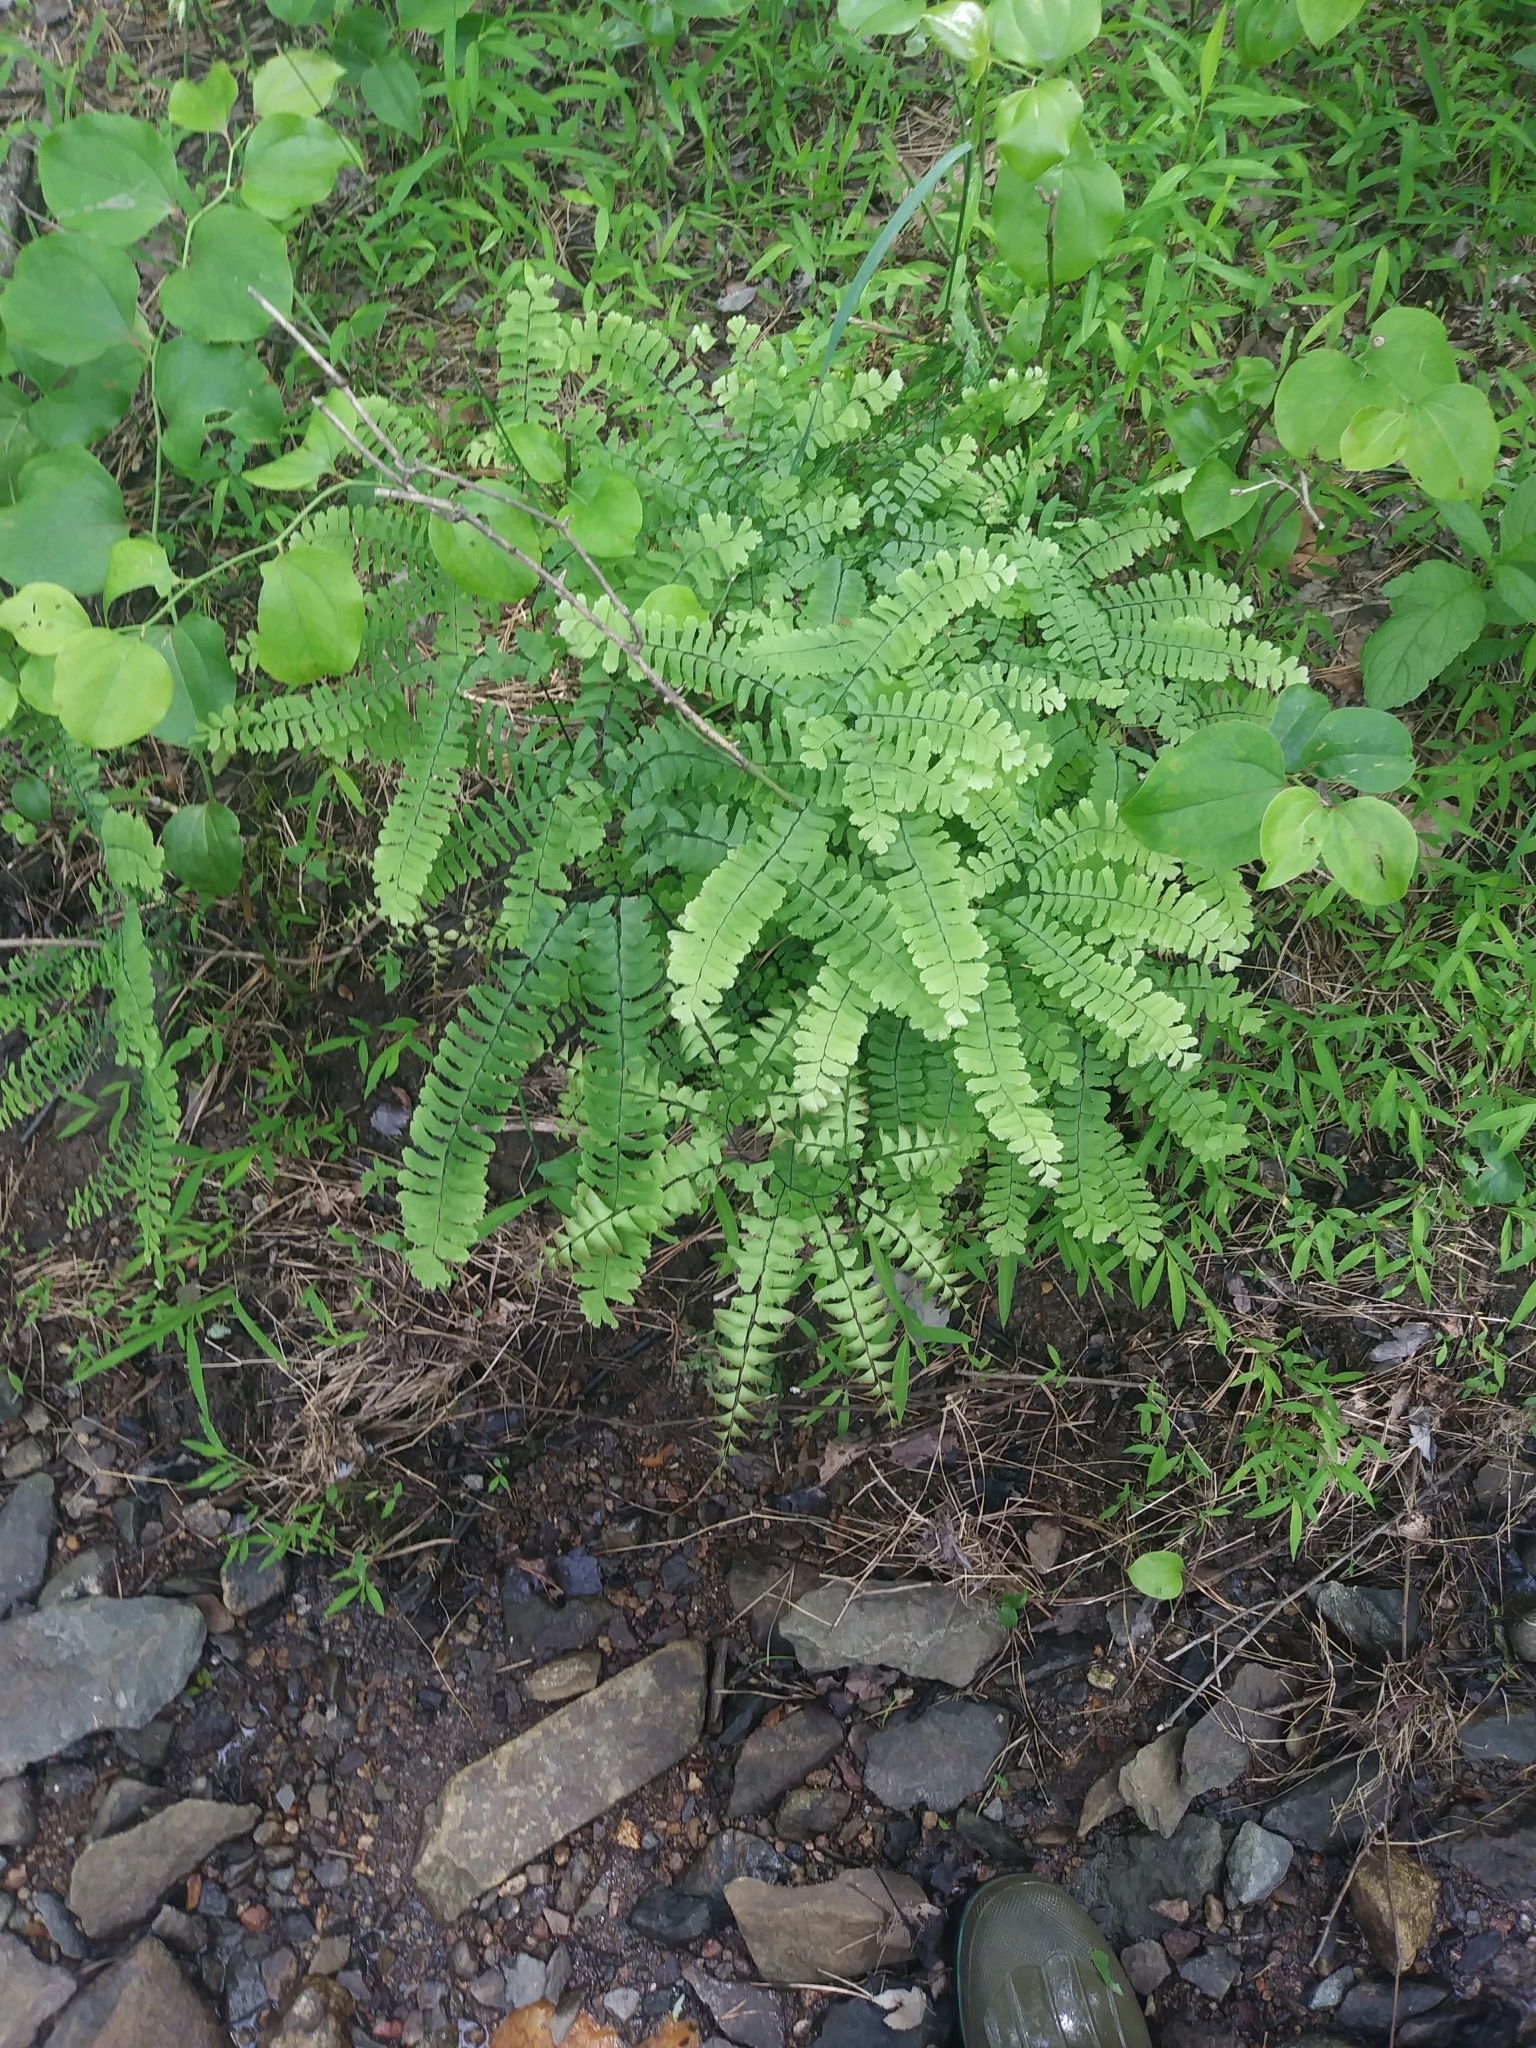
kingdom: Plantae
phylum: Tracheophyta
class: Polypodiopsida
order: Polypodiales
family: Pteridaceae
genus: Adiantum
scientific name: Adiantum pedatum
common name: Five-finger fern
